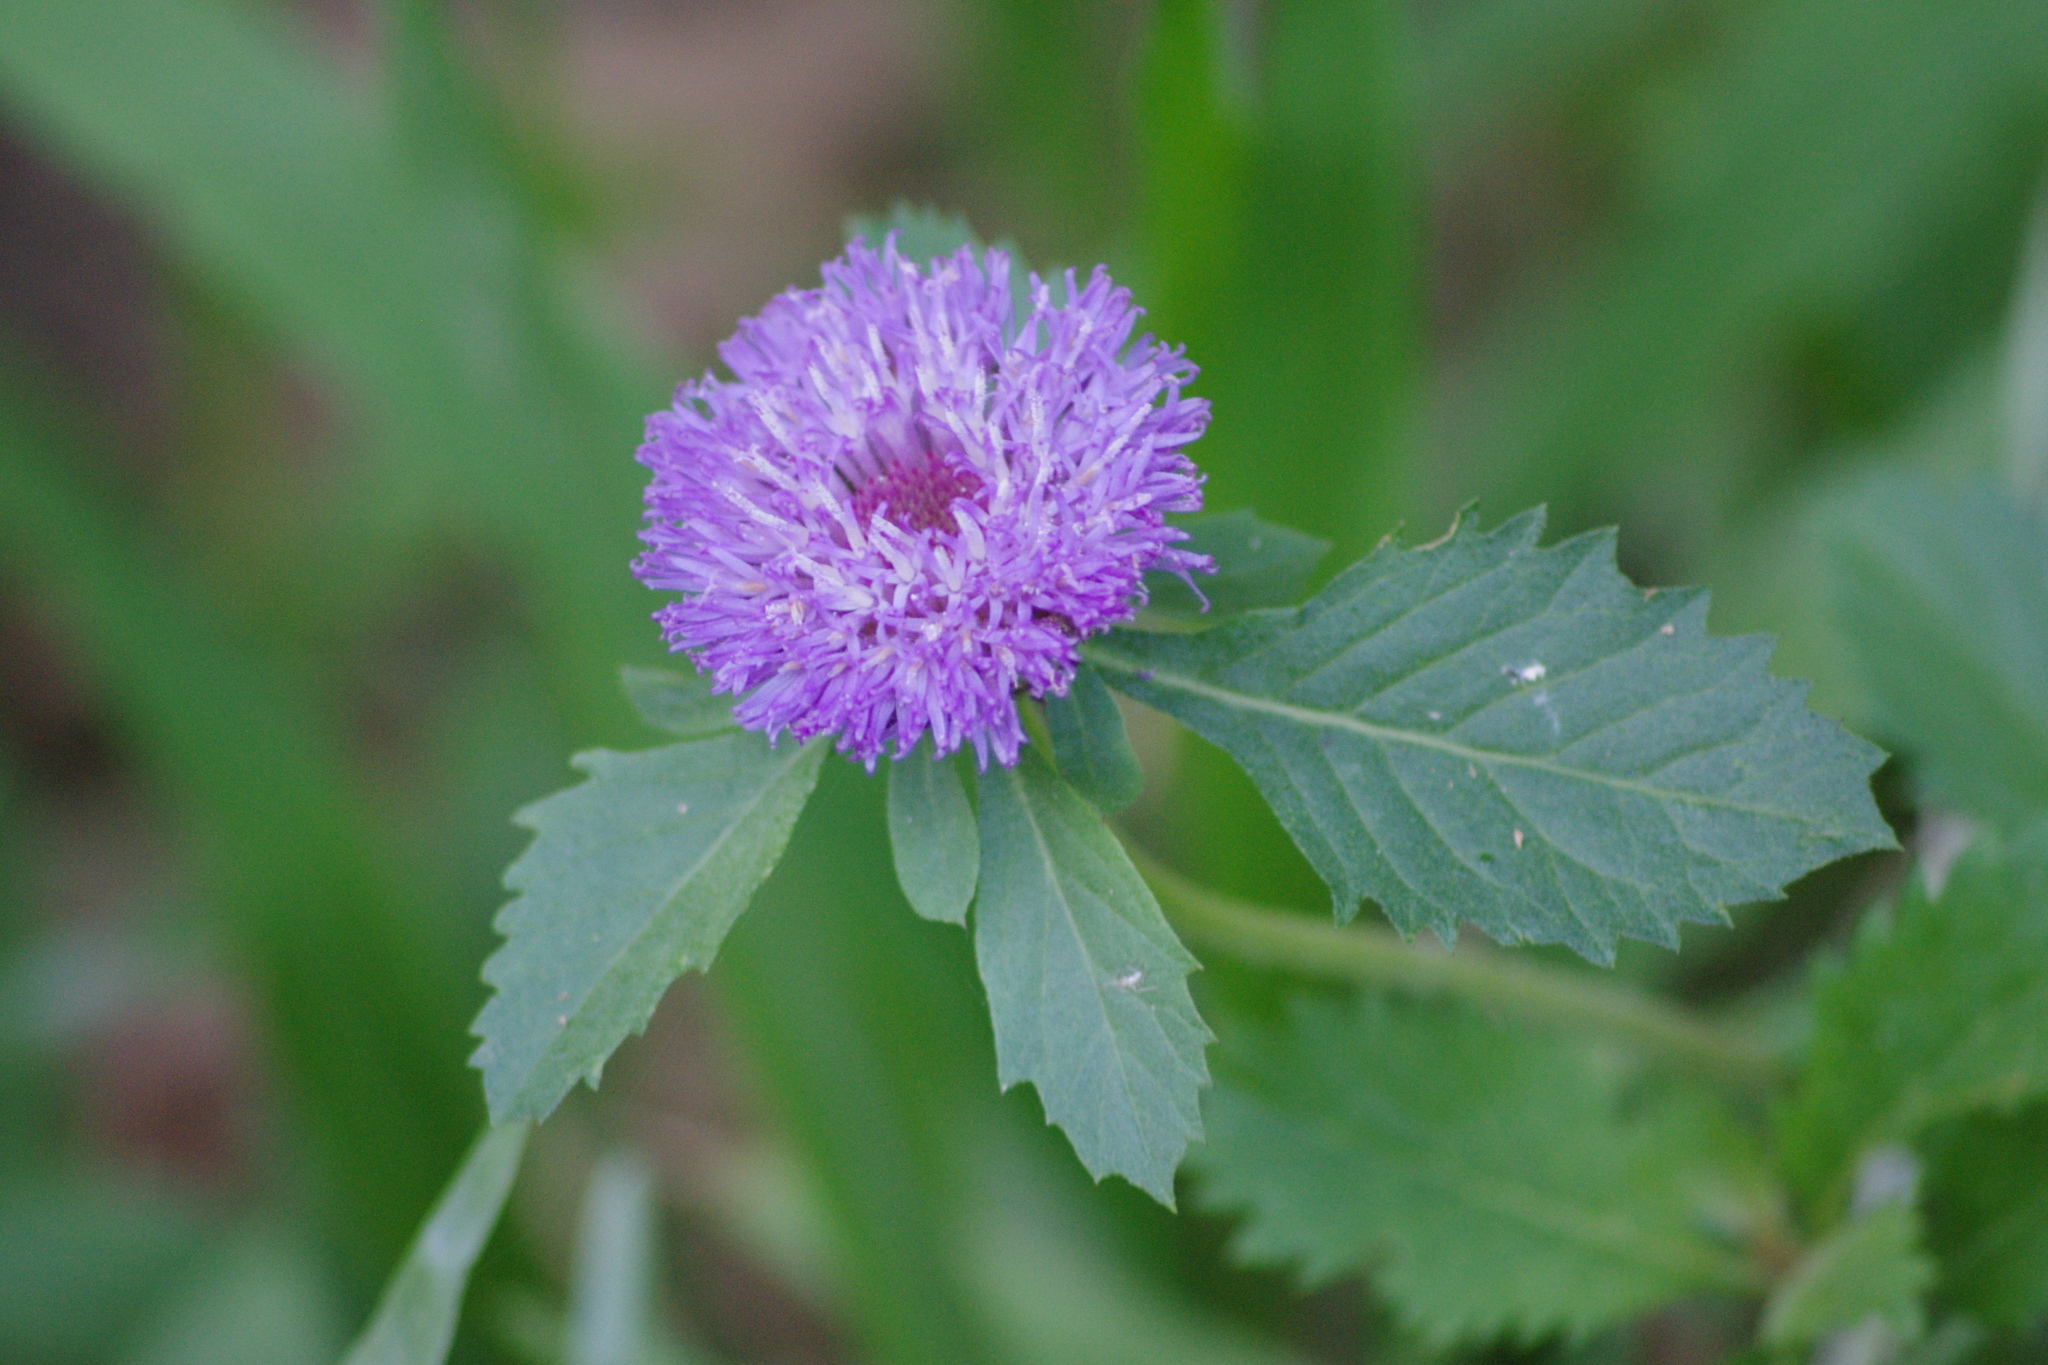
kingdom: Plantae
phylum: Tracheophyta
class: Magnoliopsida
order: Asterales
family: Asteraceae
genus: Centratherum
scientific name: Centratherum punctatum
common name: Larkdaisy
